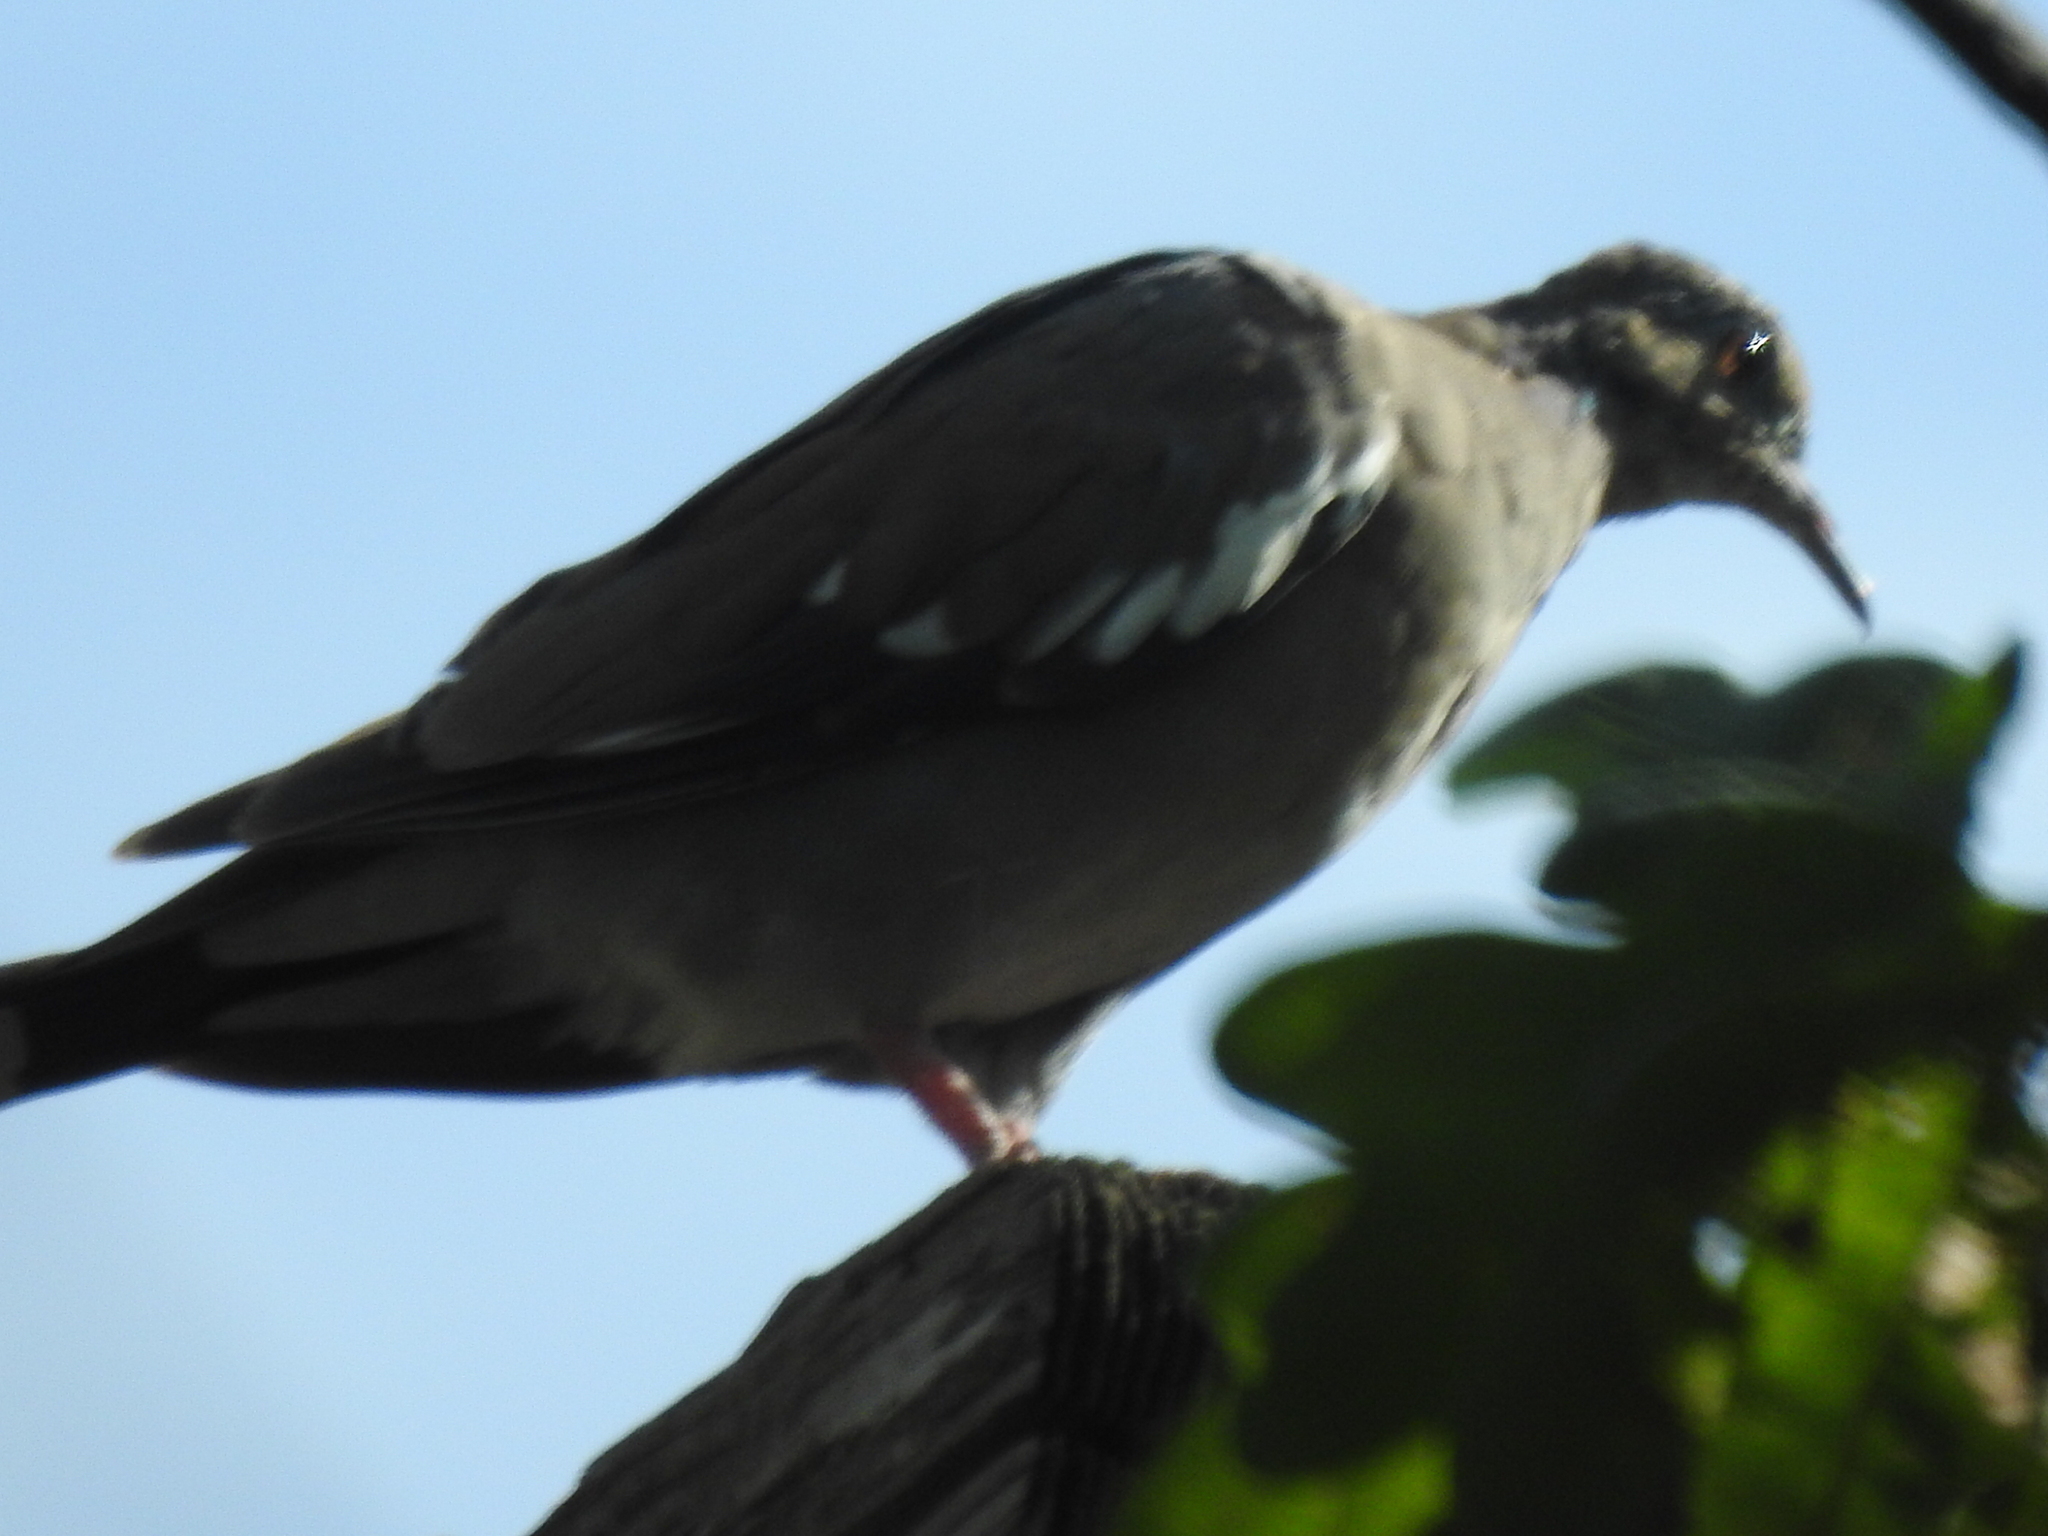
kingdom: Animalia
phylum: Chordata
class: Aves
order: Columbiformes
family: Columbidae
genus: Zenaida
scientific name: Zenaida asiatica
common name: White-winged dove
